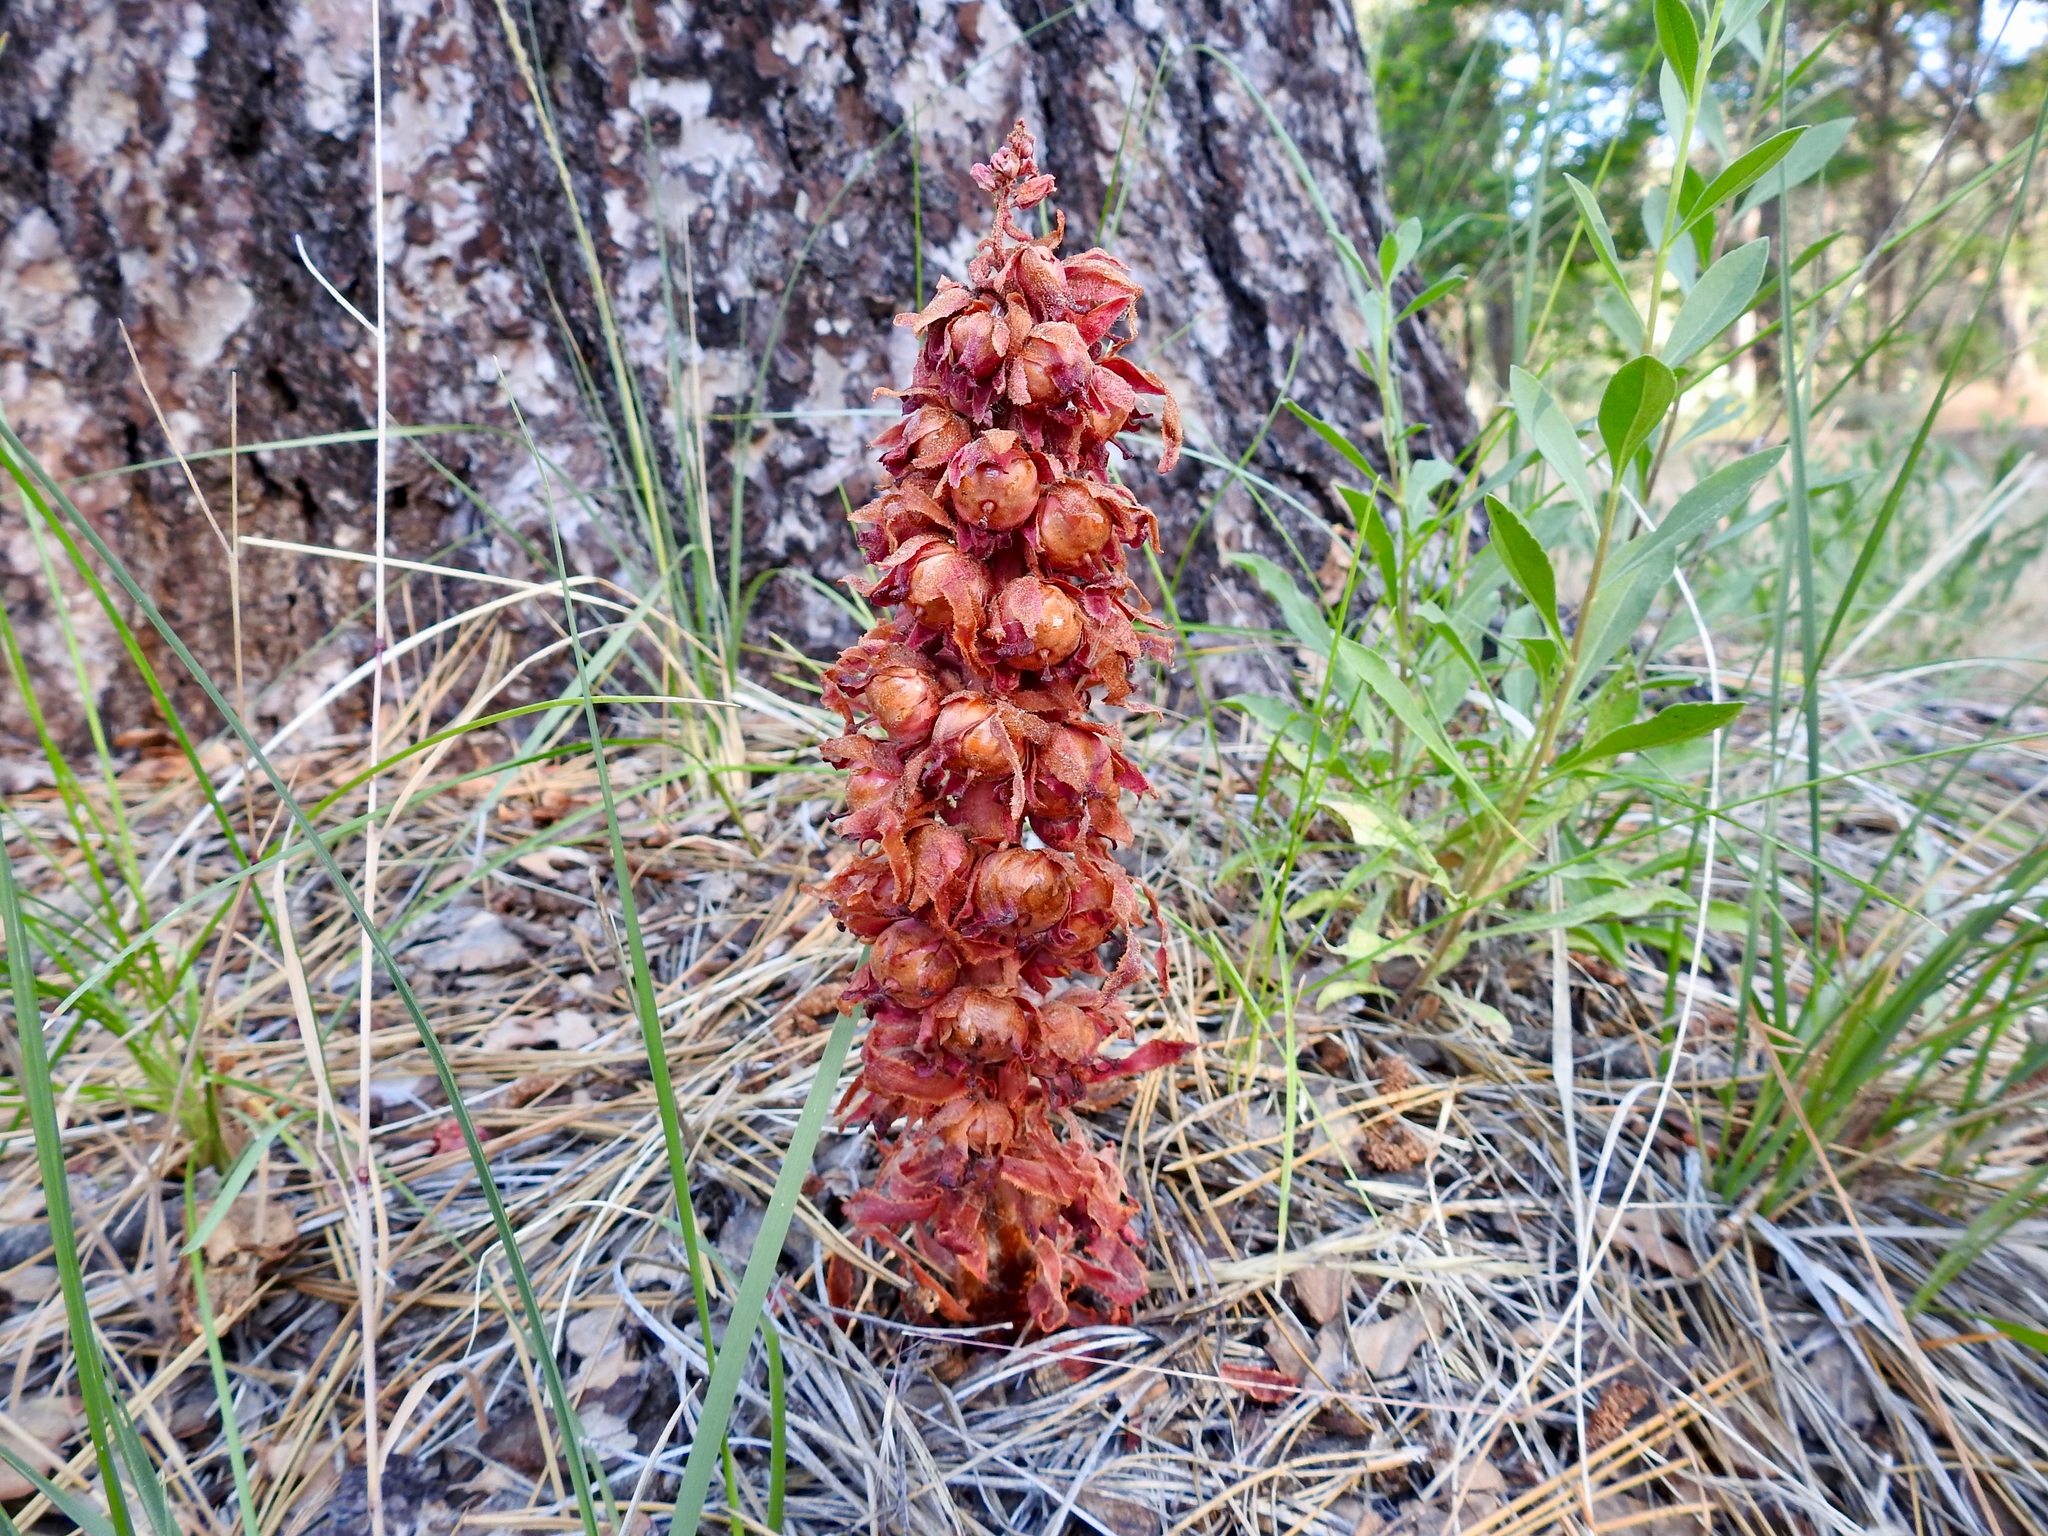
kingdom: Plantae
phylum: Tracheophyta
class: Magnoliopsida
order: Ericales
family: Ericaceae
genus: Sarcodes
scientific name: Sarcodes sanguinea
